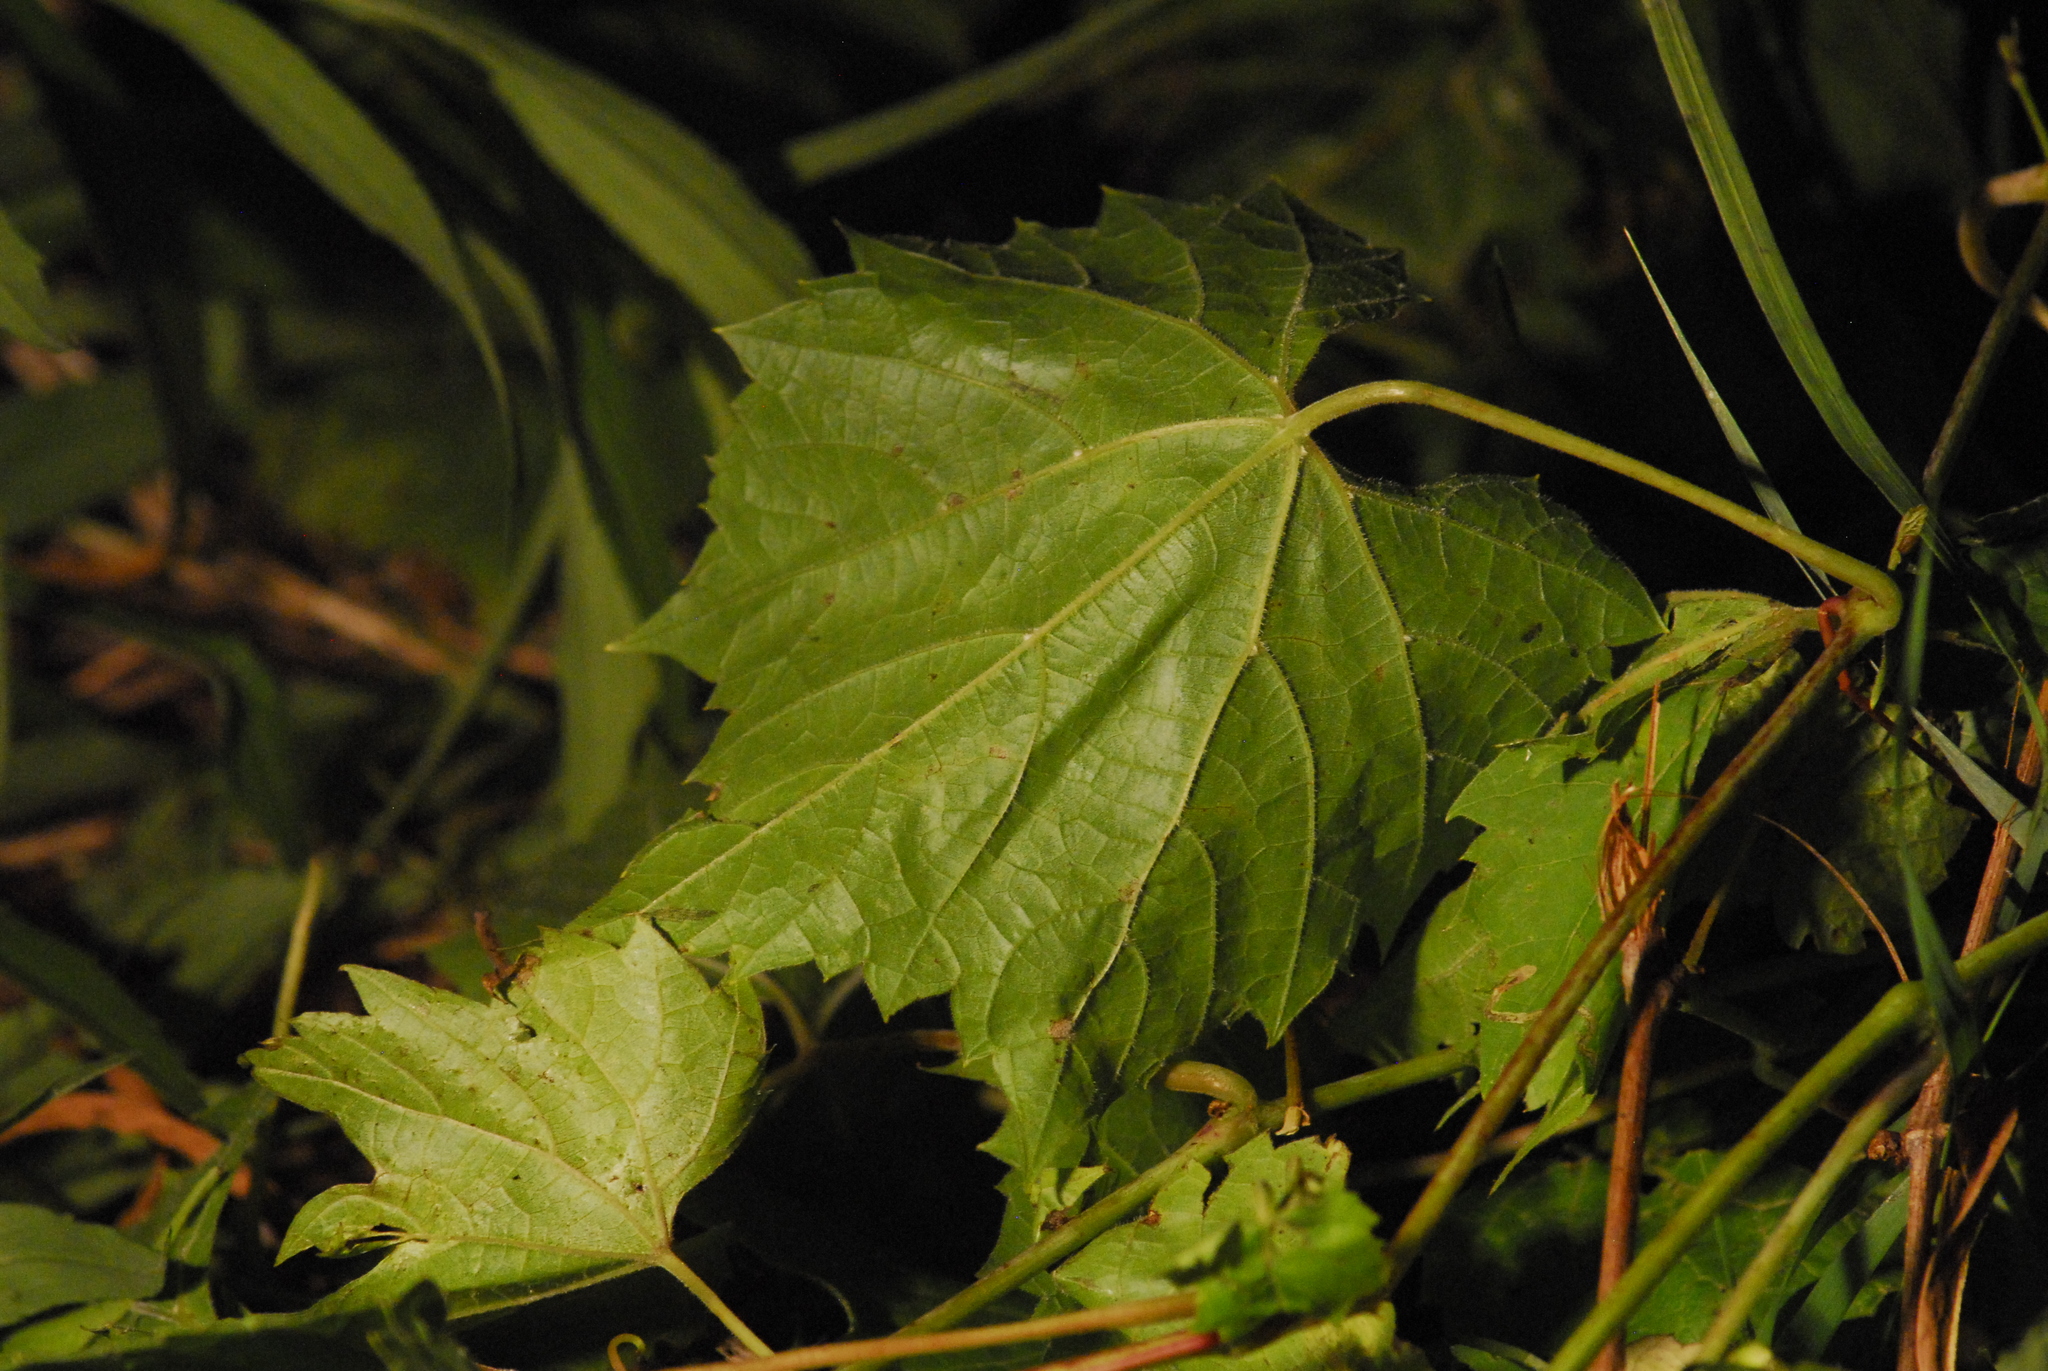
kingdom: Plantae
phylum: Tracheophyta
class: Magnoliopsida
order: Vitales
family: Vitaceae
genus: Vitis
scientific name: Vitis riparia
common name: Frost grape
